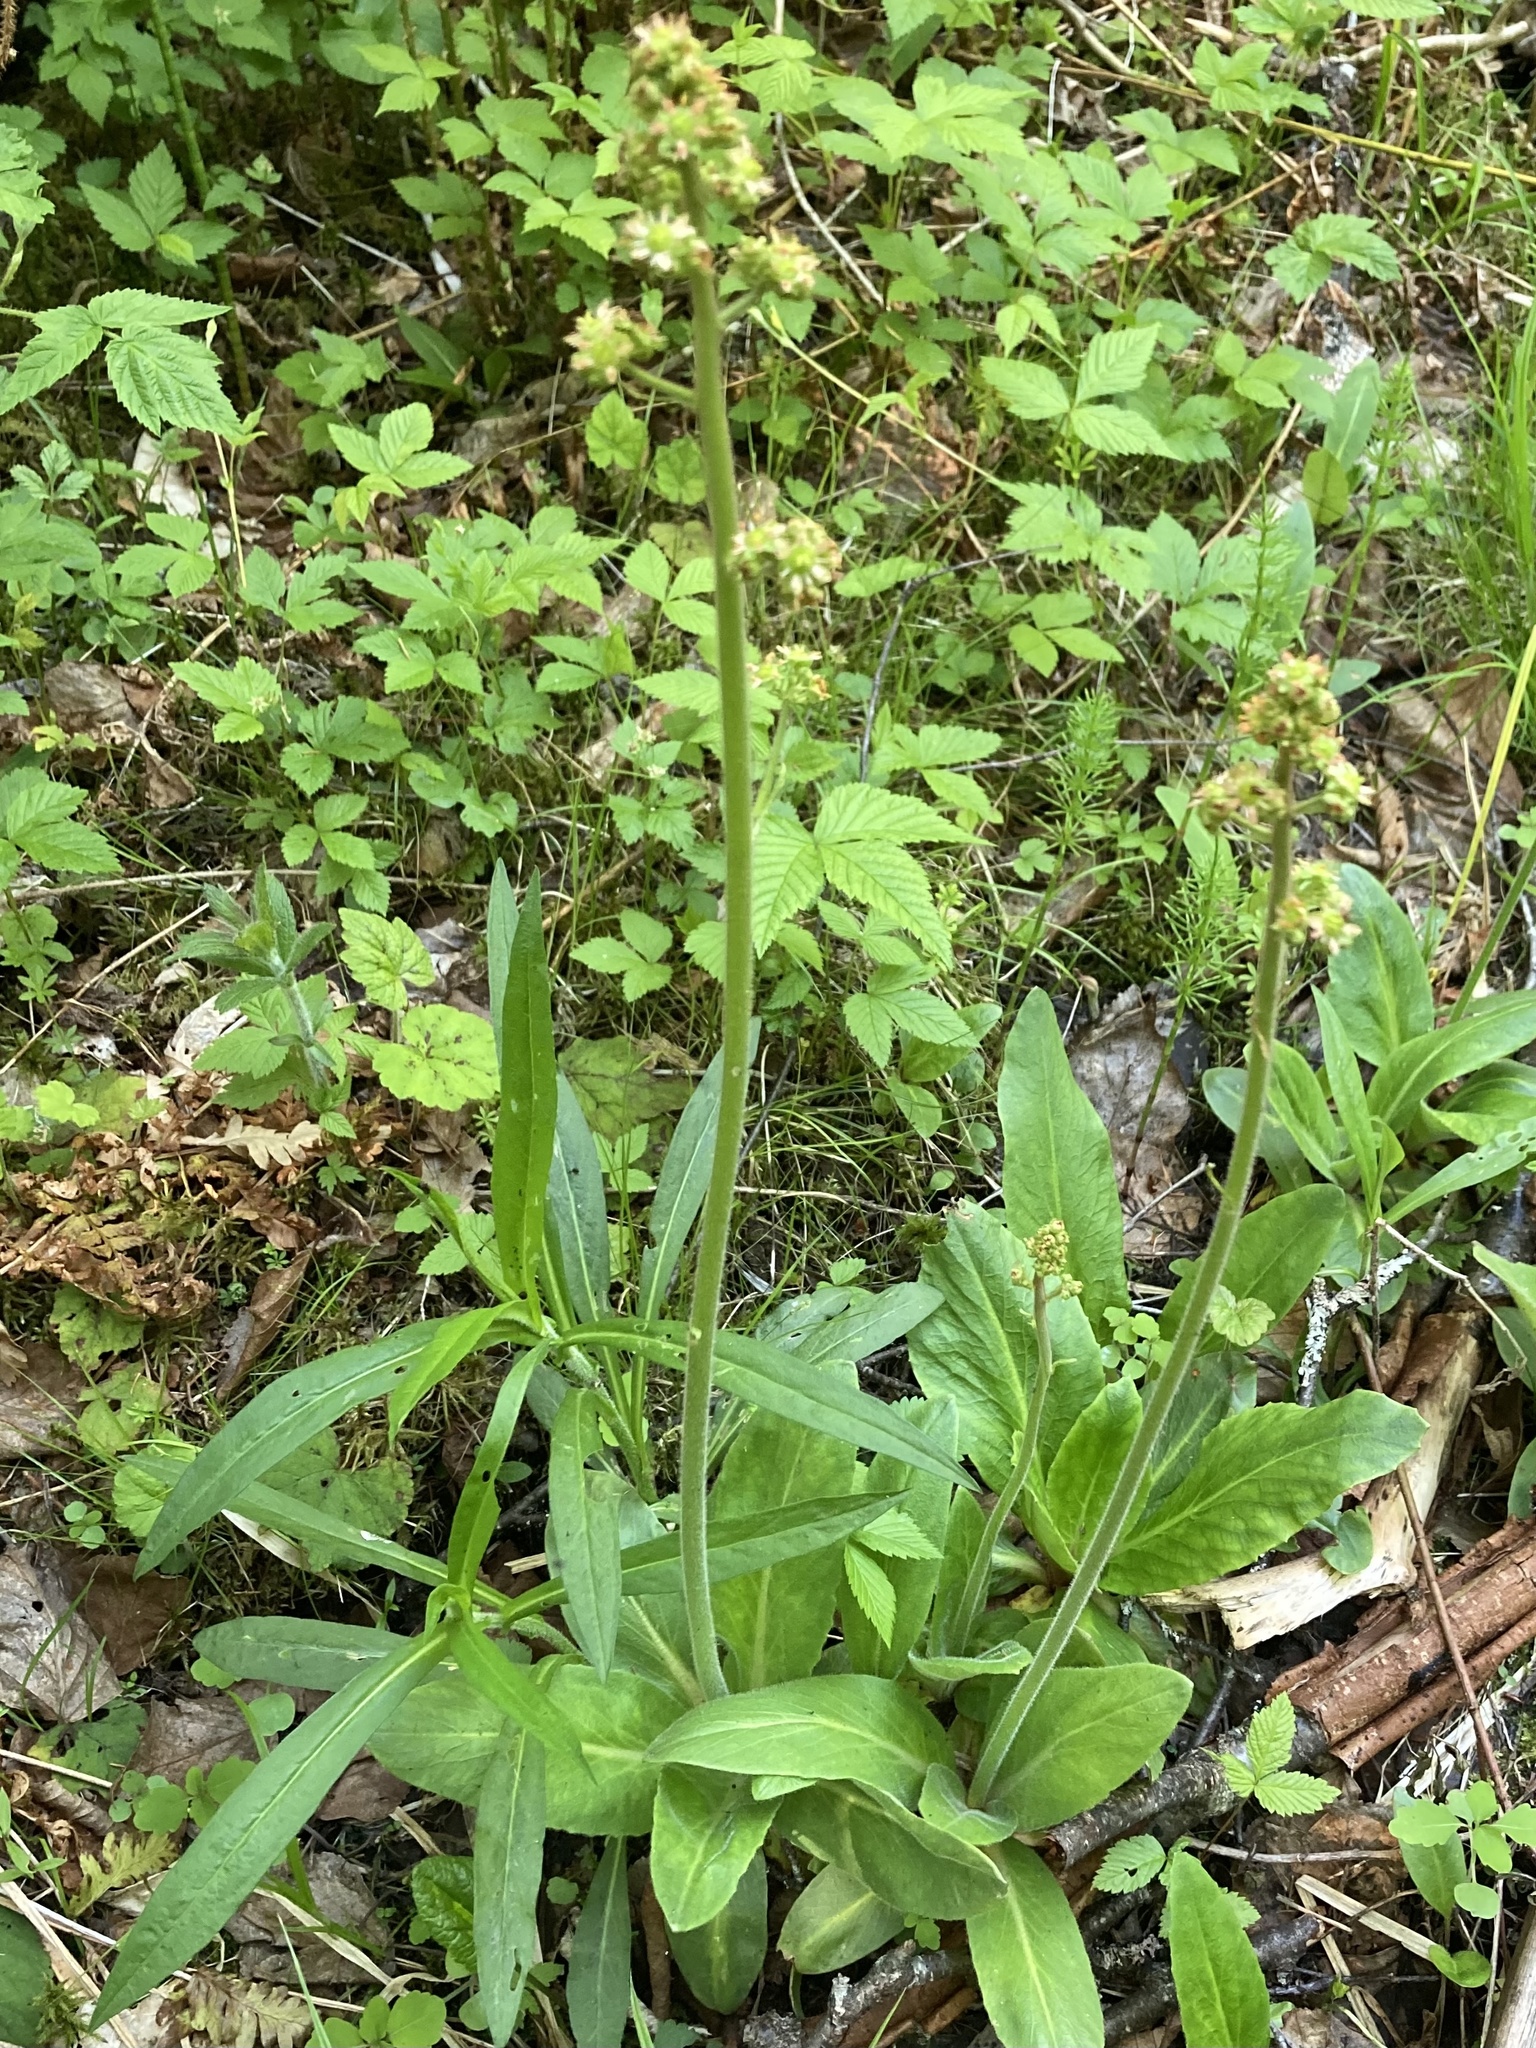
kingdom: Plantae
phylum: Tracheophyta
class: Magnoliopsida
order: Saxifragales
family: Saxifragaceae
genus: Micranthes
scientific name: Micranthes pensylvanica
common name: Marsh saxifrage
